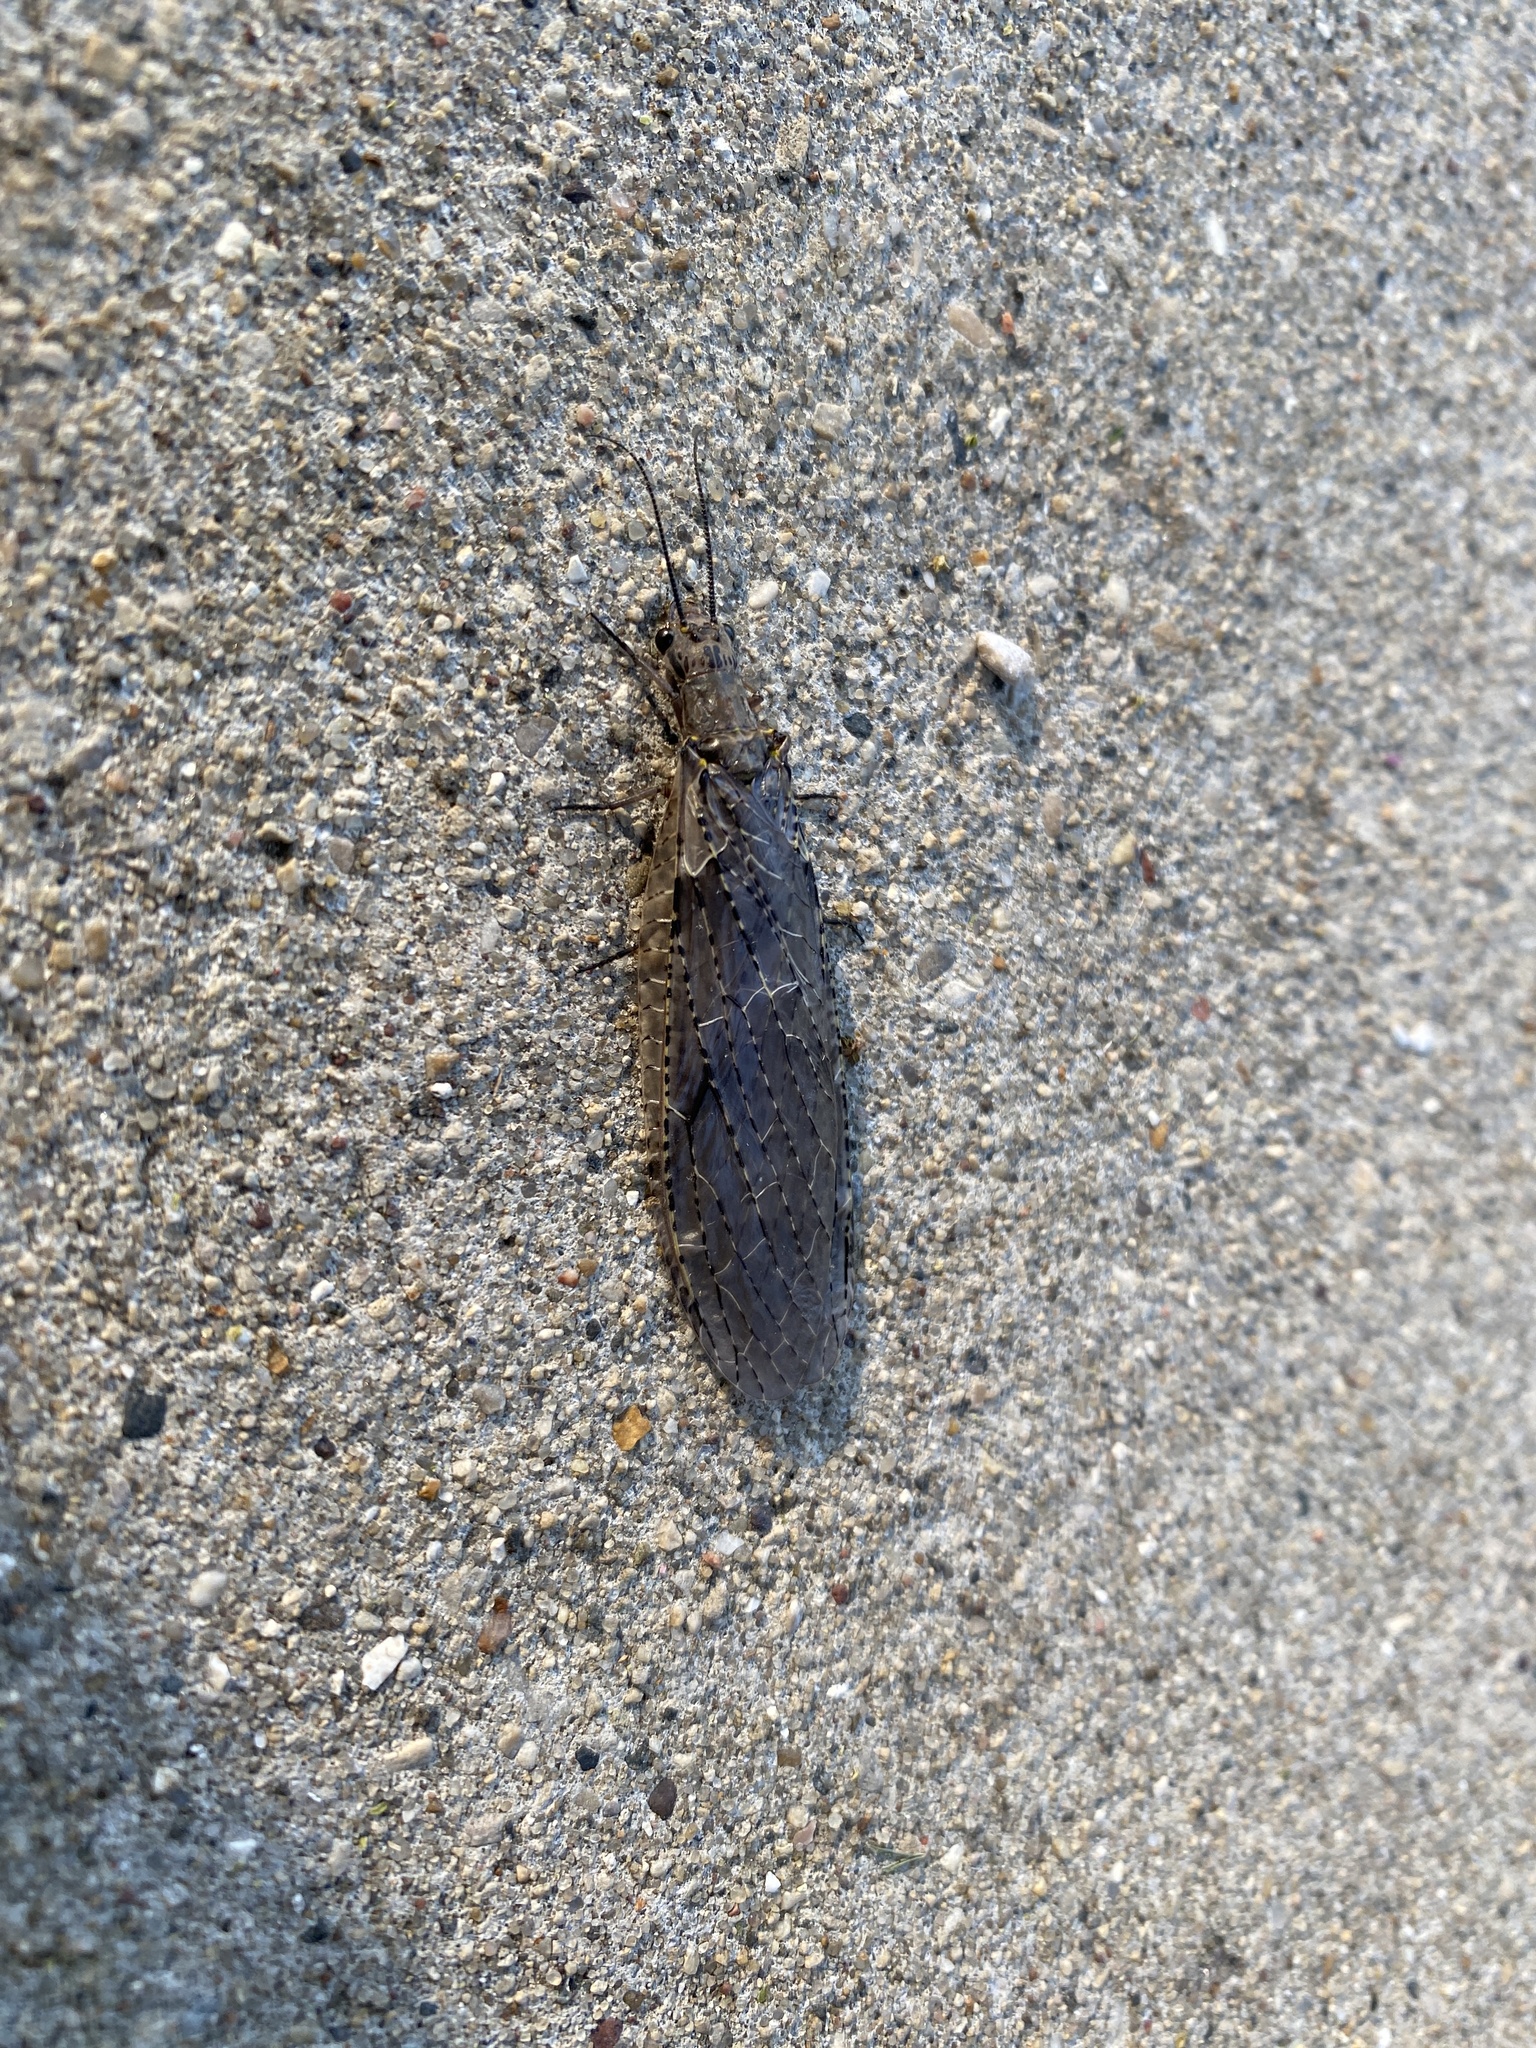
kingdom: Animalia
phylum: Arthropoda
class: Insecta
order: Megaloptera
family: Corydalidae
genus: Chauliodes
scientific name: Chauliodes rastricornis
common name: Spring fishfly
